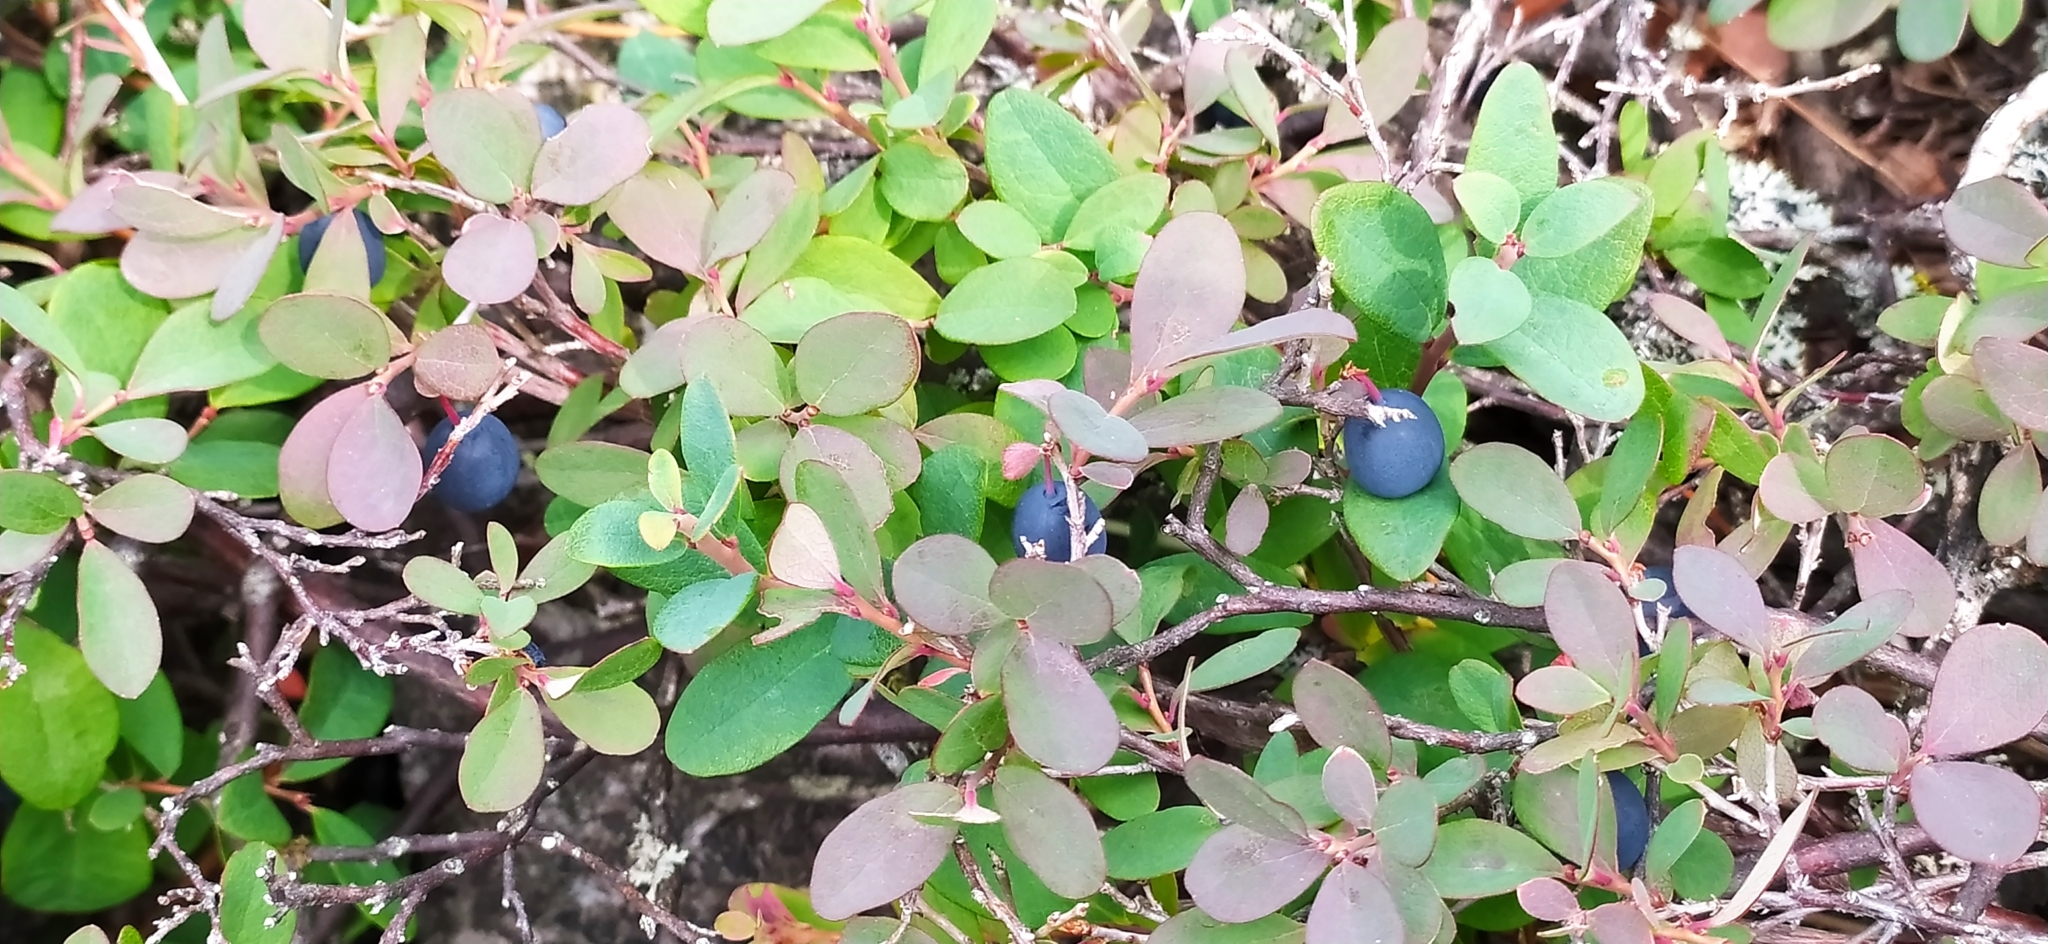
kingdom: Plantae
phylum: Tracheophyta
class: Magnoliopsida
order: Ericales
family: Ericaceae
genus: Vaccinium
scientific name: Vaccinium uliginosum
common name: Bog bilberry
